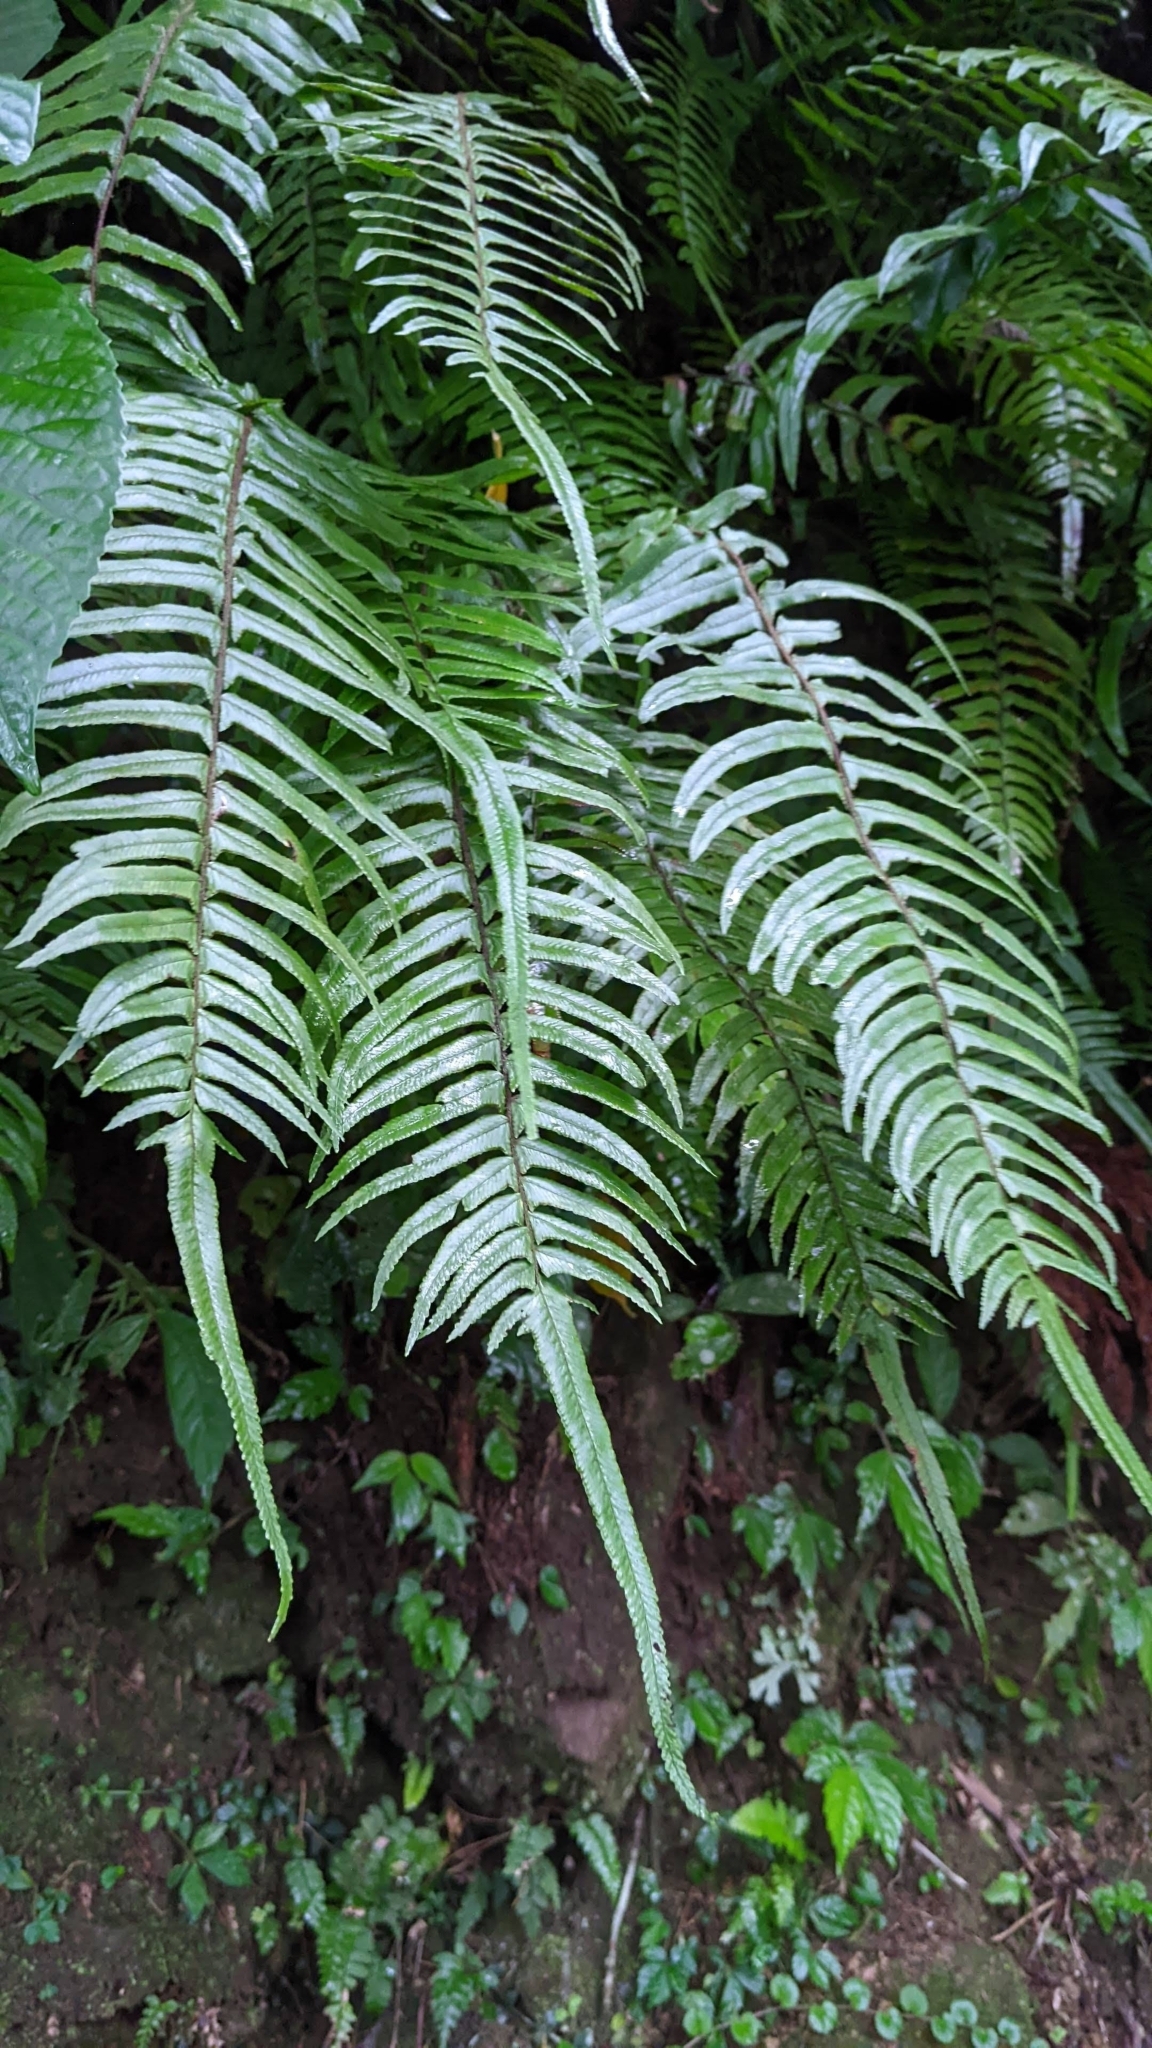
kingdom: Plantae
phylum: Tracheophyta
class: Polypodiopsida
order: Polypodiales
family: Dennstaedtiaceae
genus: Microlepia
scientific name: Microlepia hookeriana
